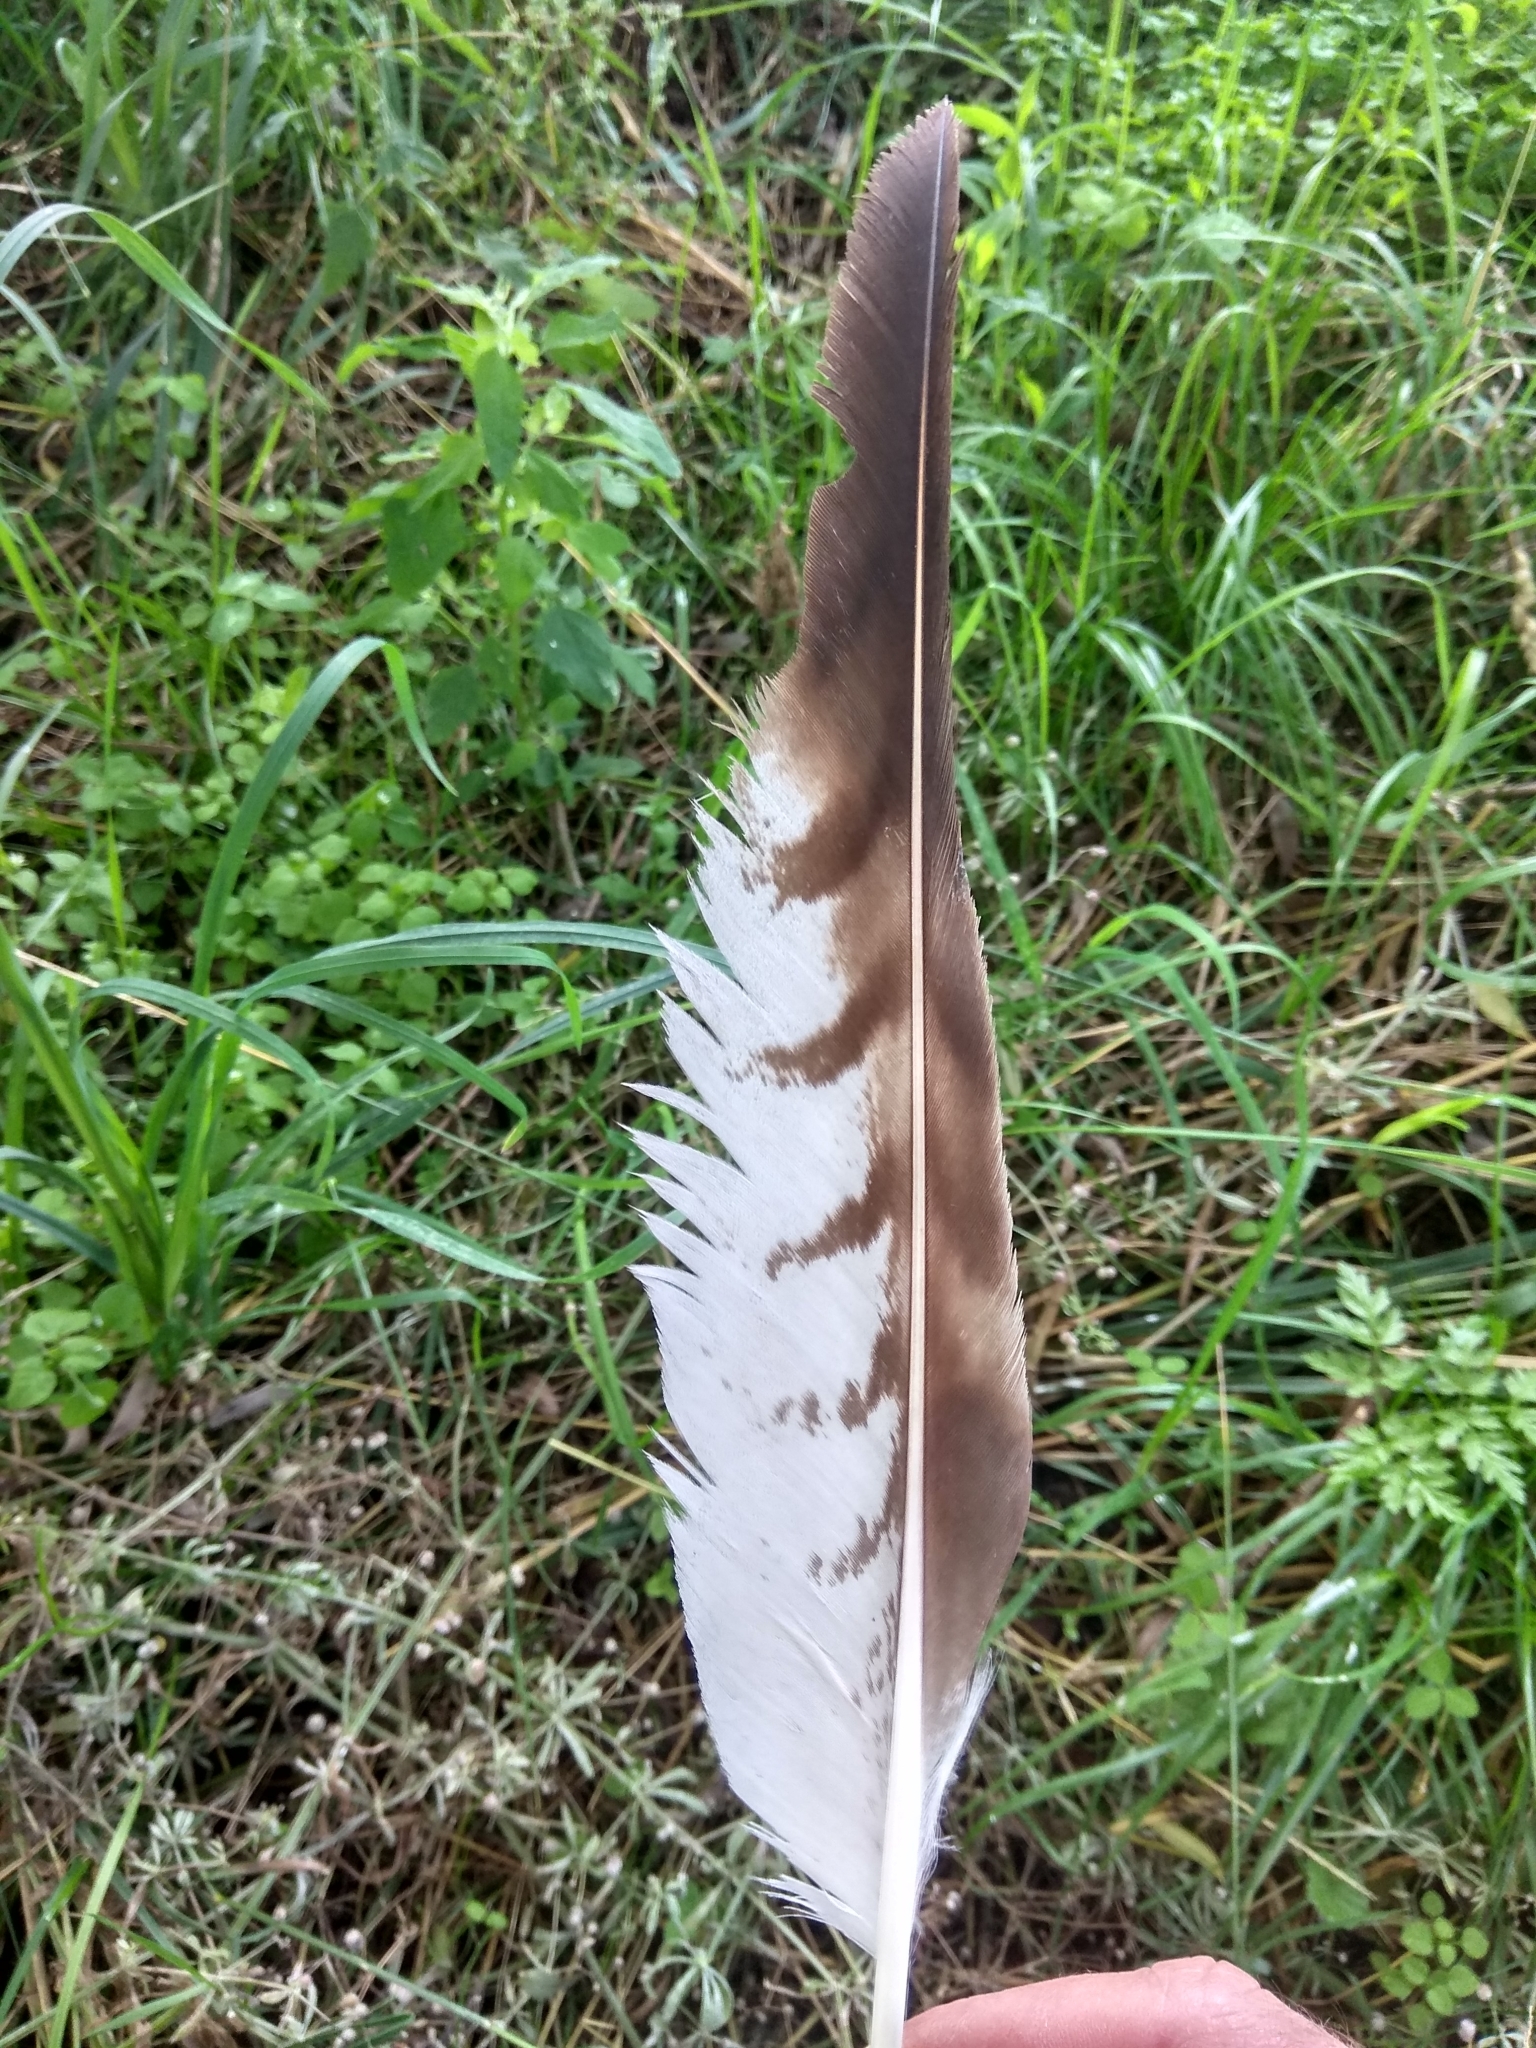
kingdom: Animalia
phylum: Chordata
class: Aves
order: Accipitriformes
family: Accipitridae
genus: Buteo
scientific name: Buteo buteo
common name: Common buzzard
